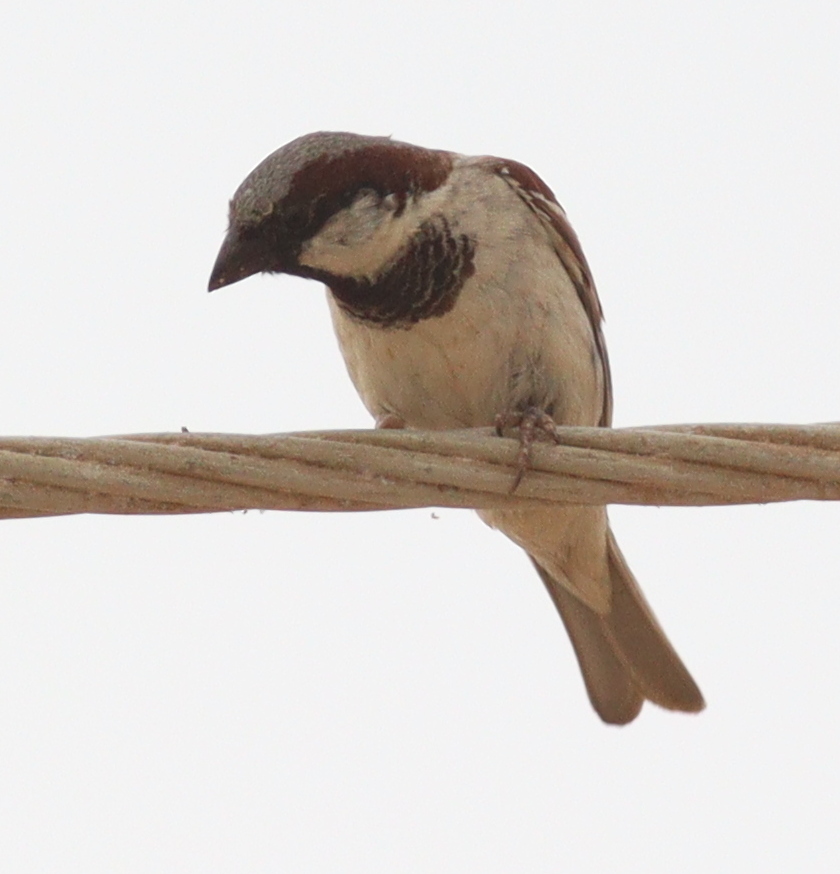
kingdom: Animalia
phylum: Chordata
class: Aves
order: Passeriformes
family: Passeridae
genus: Passer
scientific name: Passer domesticus
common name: House sparrow
